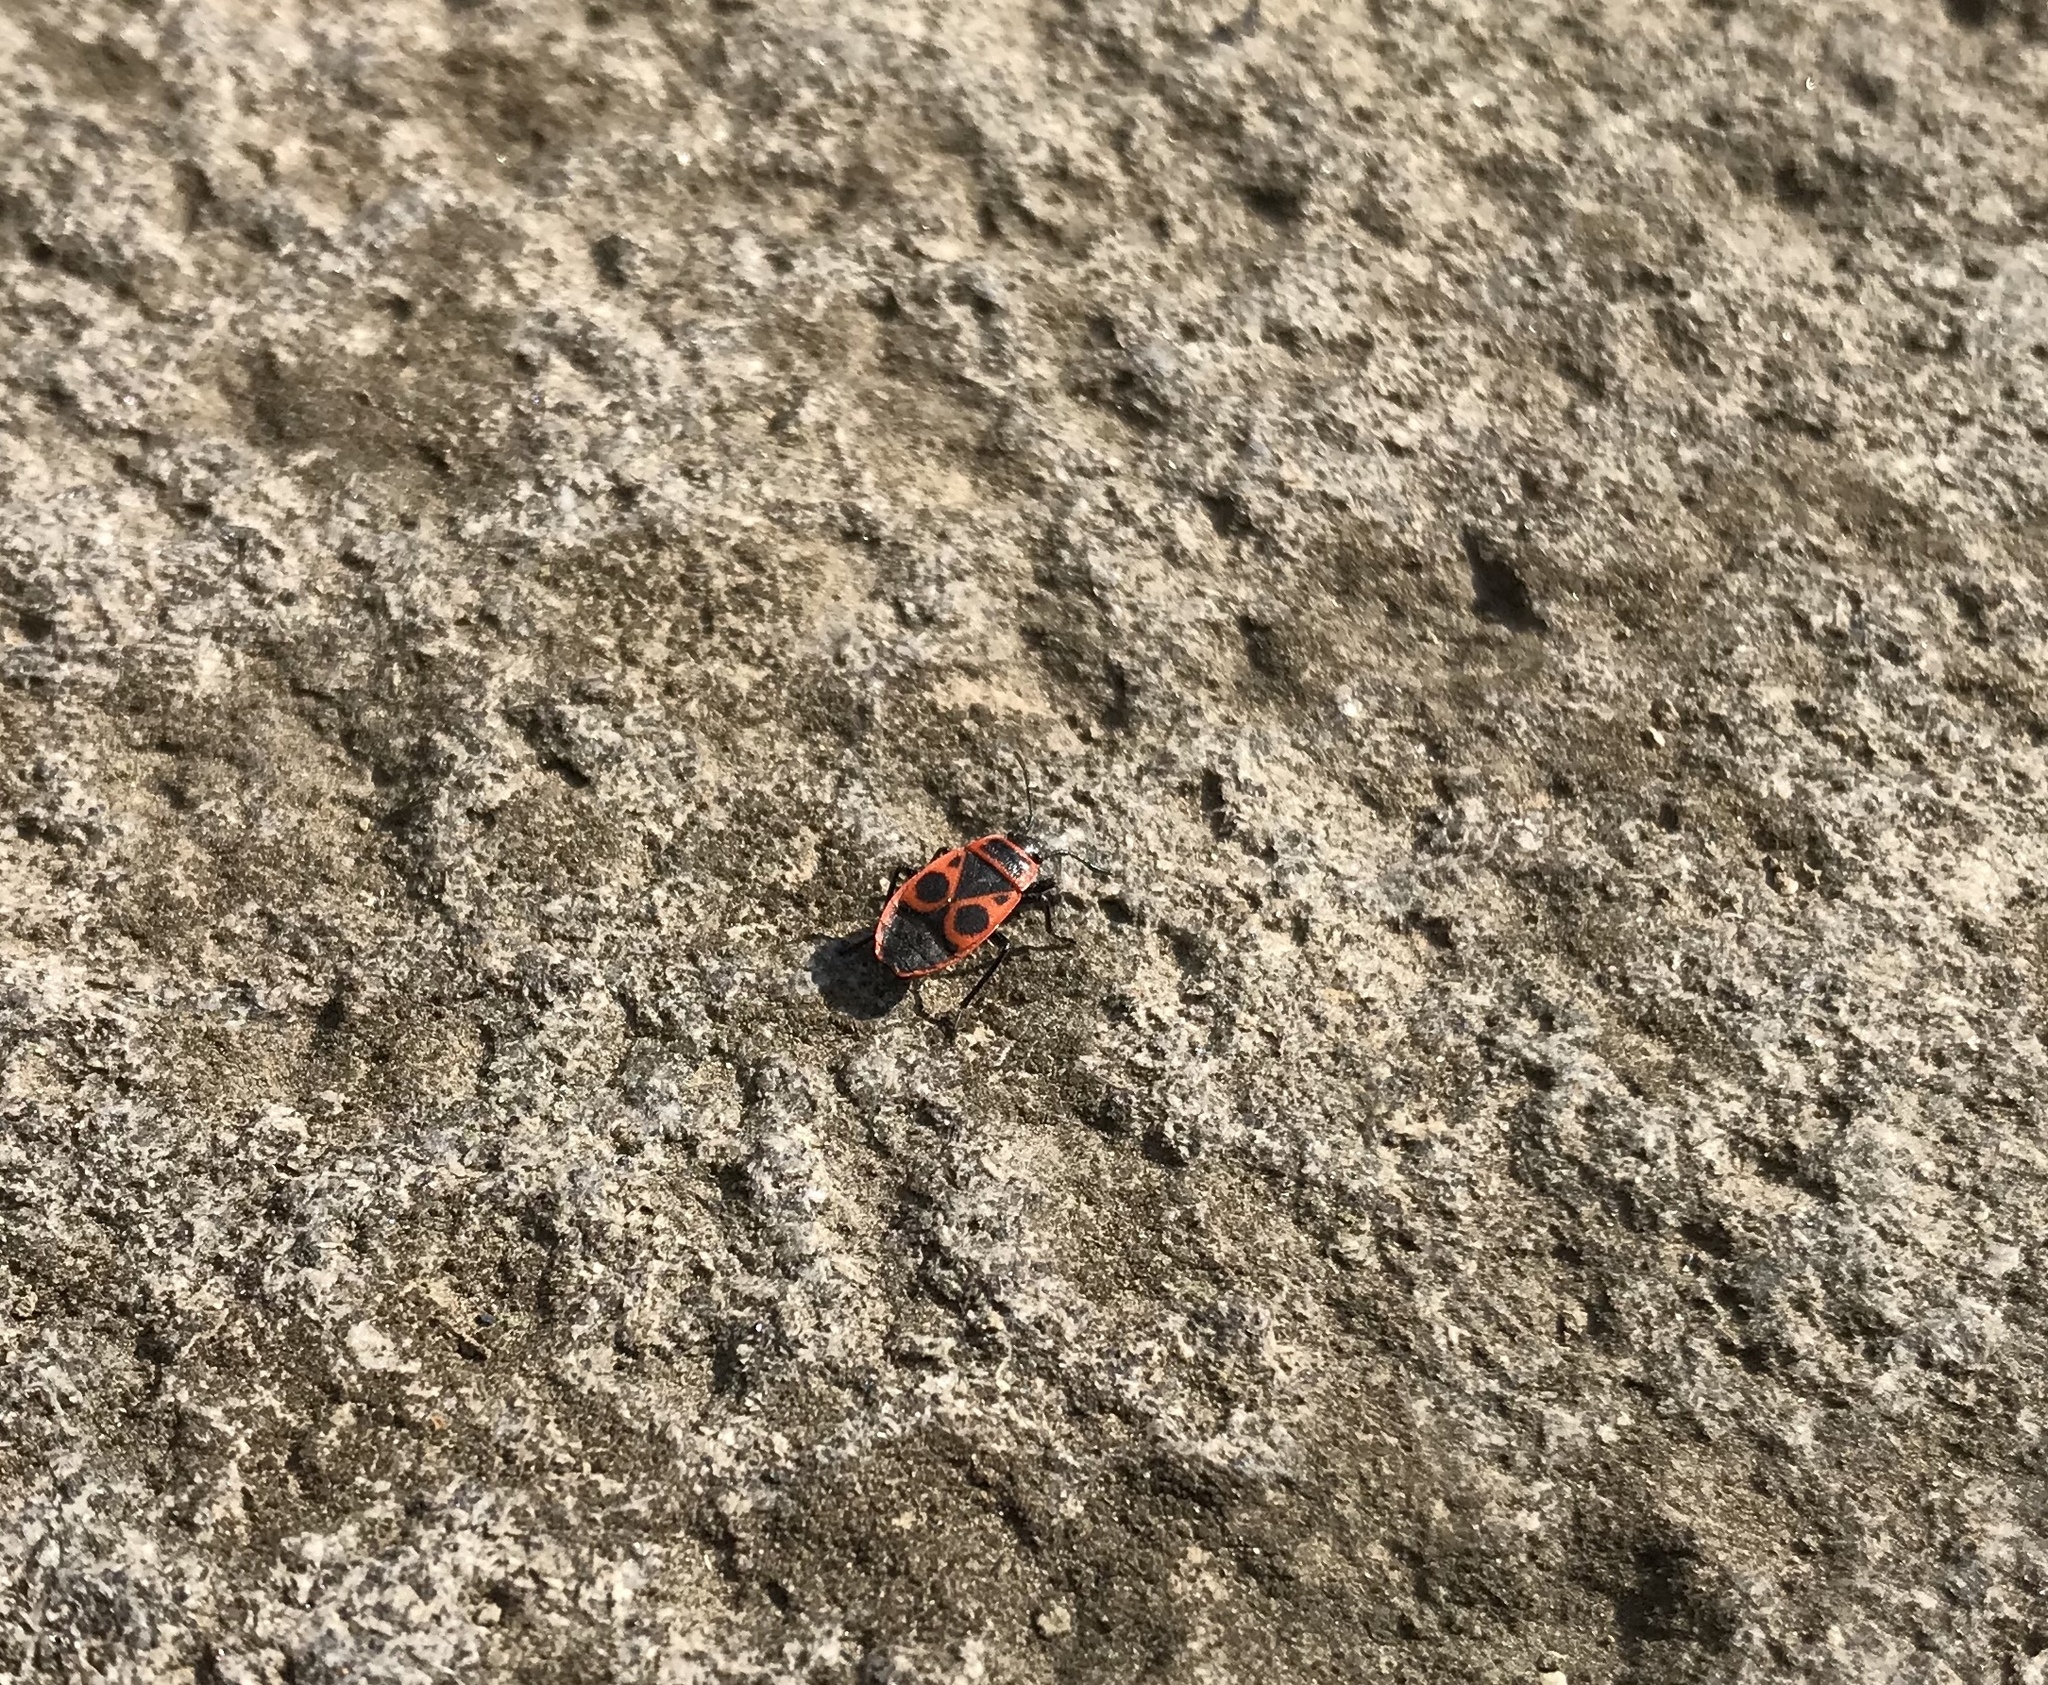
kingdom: Animalia
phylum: Arthropoda
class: Insecta
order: Hemiptera
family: Pyrrhocoridae
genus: Pyrrhocoris
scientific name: Pyrrhocoris apterus
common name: Firebug
